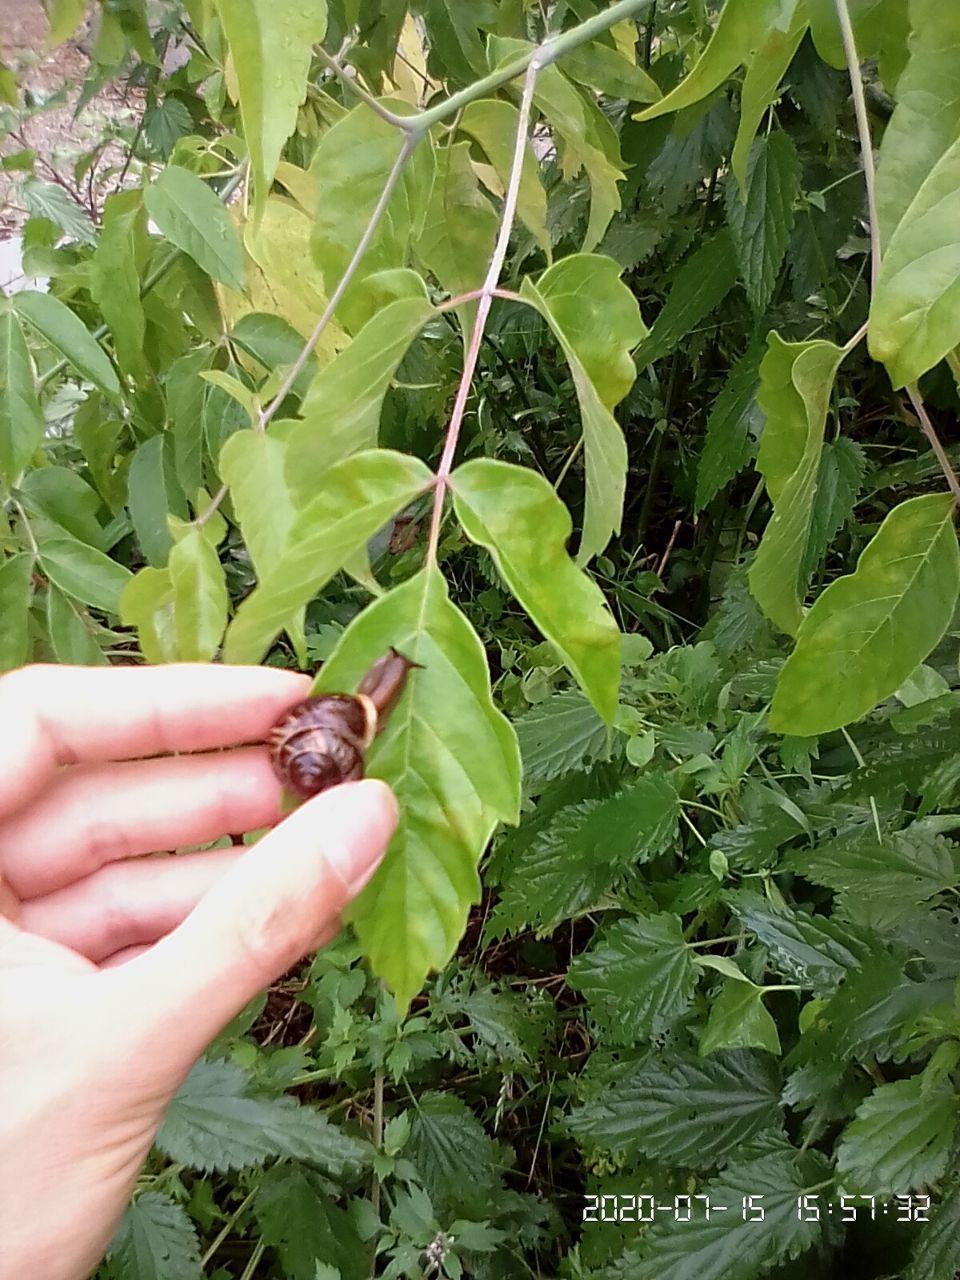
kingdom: Animalia
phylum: Mollusca
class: Gastropoda
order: Stylommatophora
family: Helicidae
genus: Arianta
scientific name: Arianta arbustorum
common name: Copse snail
